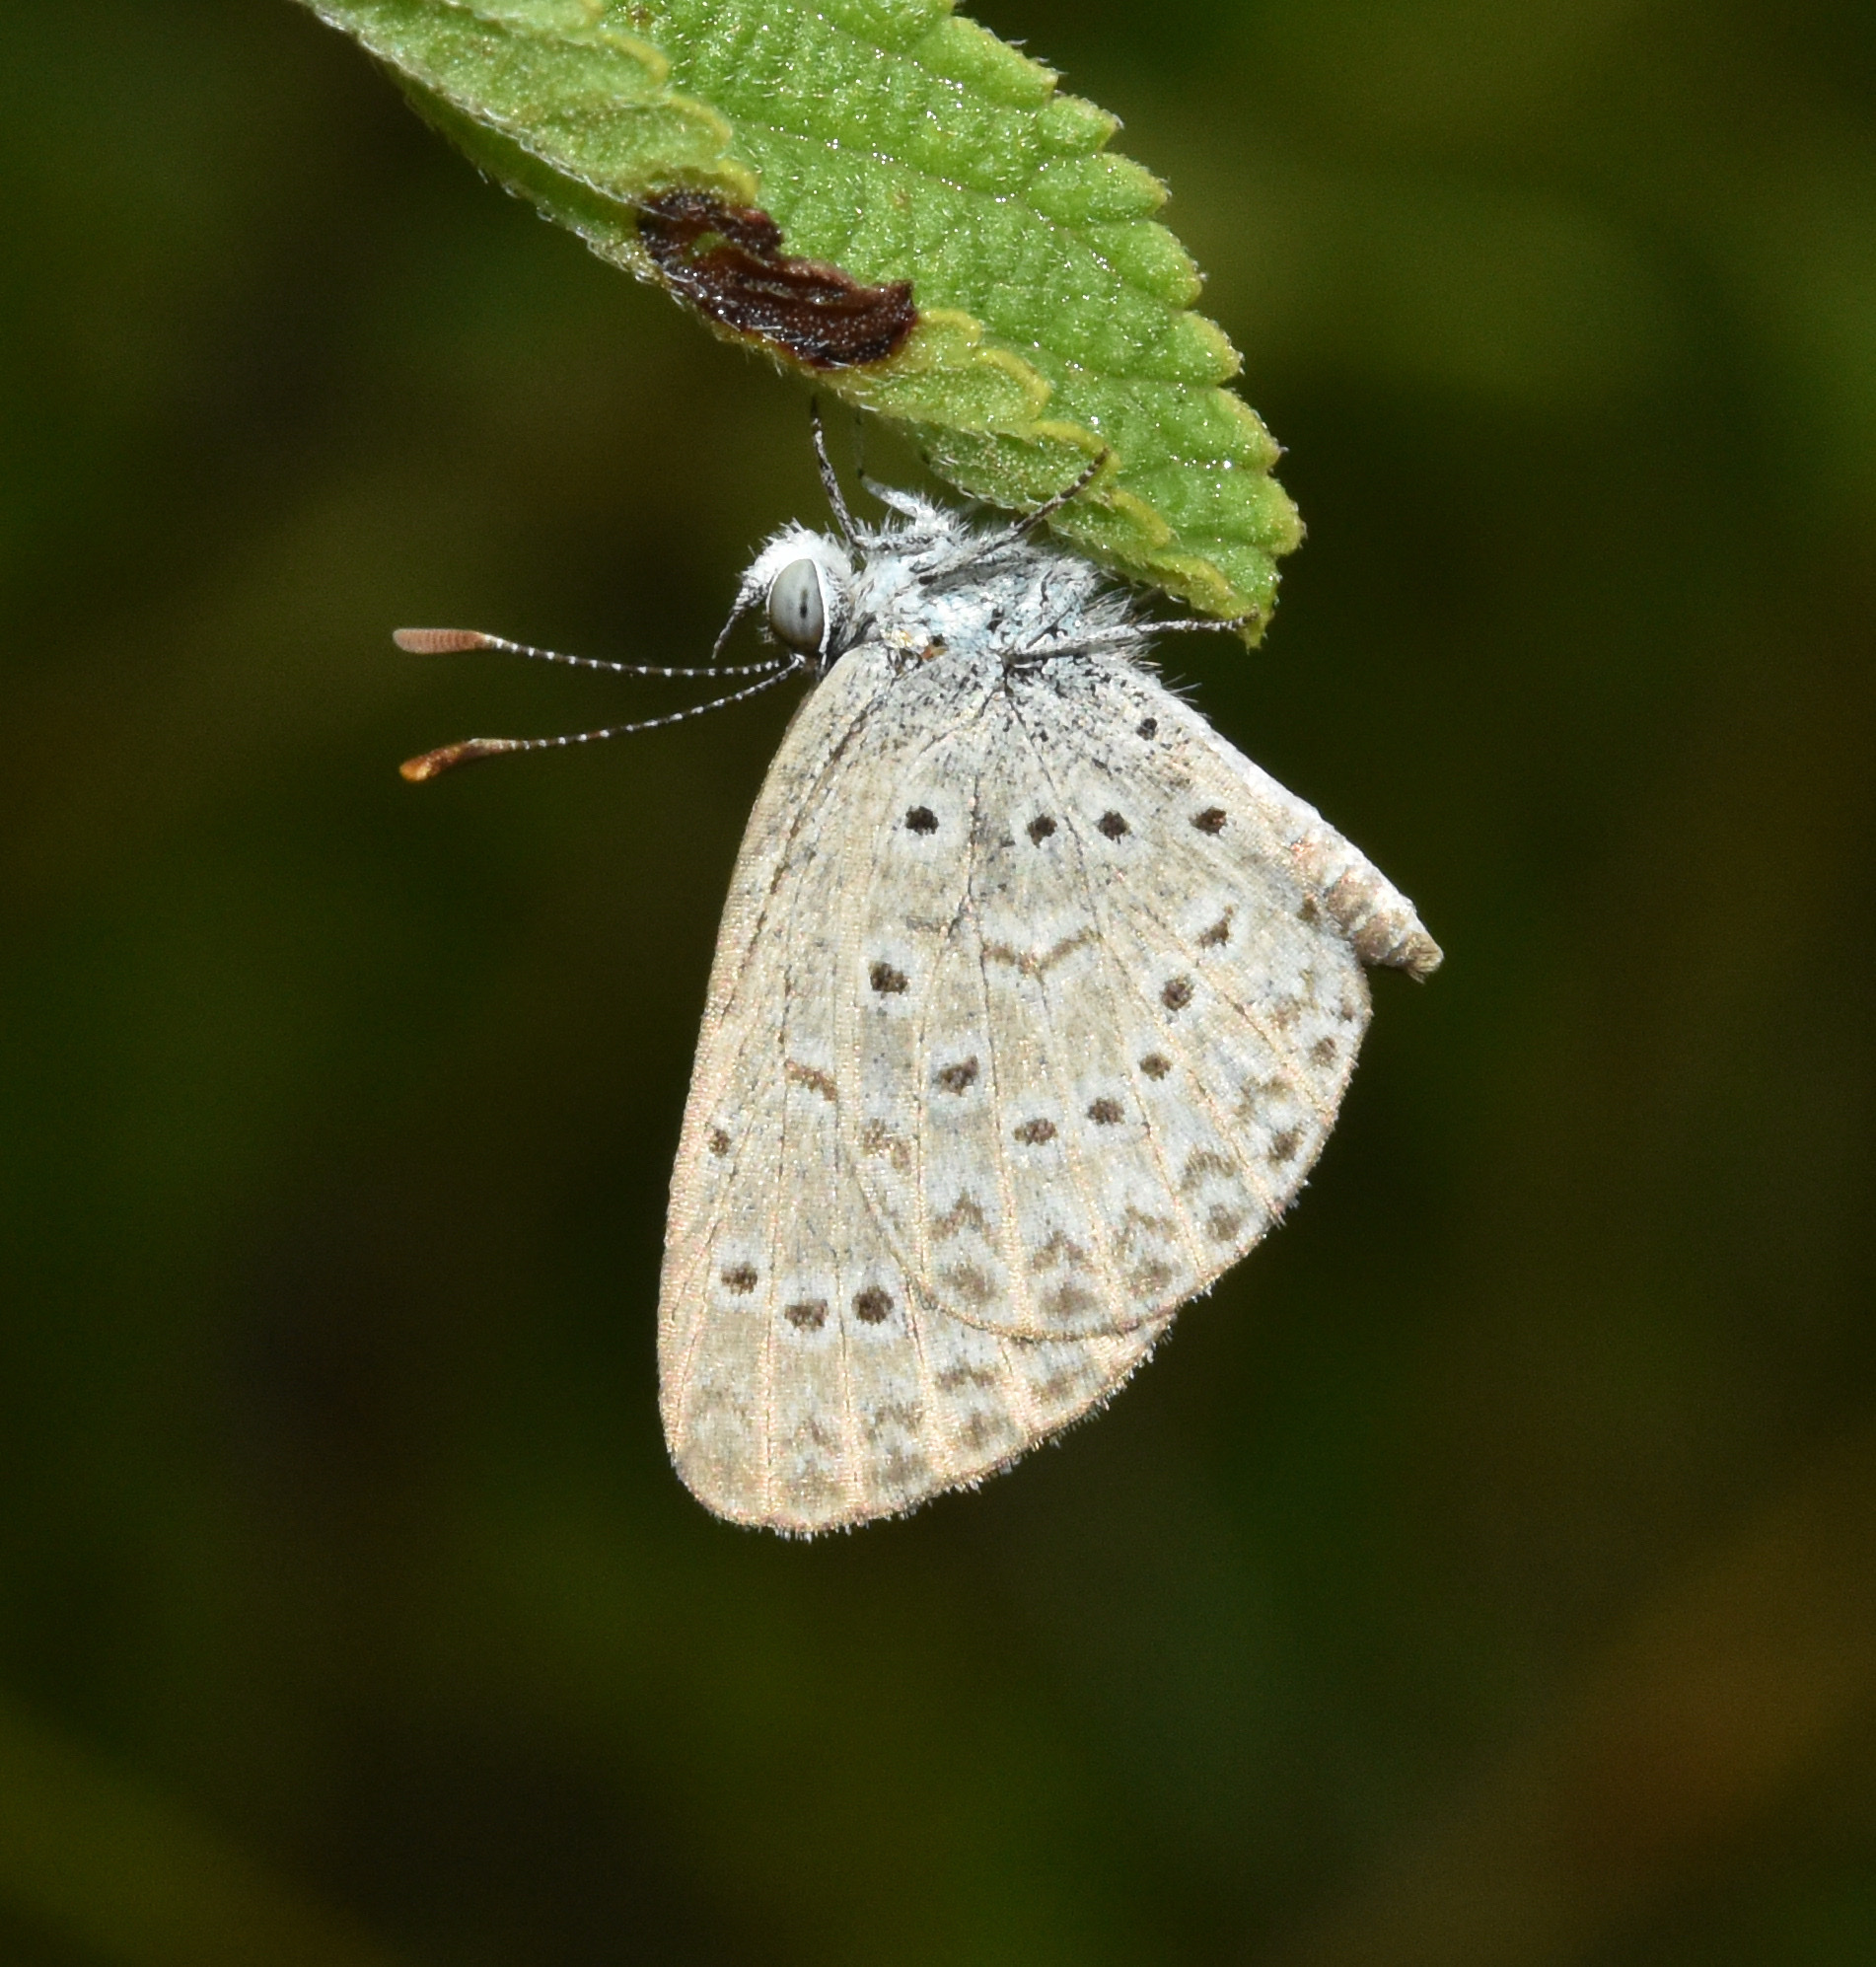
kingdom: Animalia
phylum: Arthropoda
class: Insecta
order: Lepidoptera
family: Lycaenidae
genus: Zizeeria
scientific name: Zizeeria knysna
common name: African grass blue
